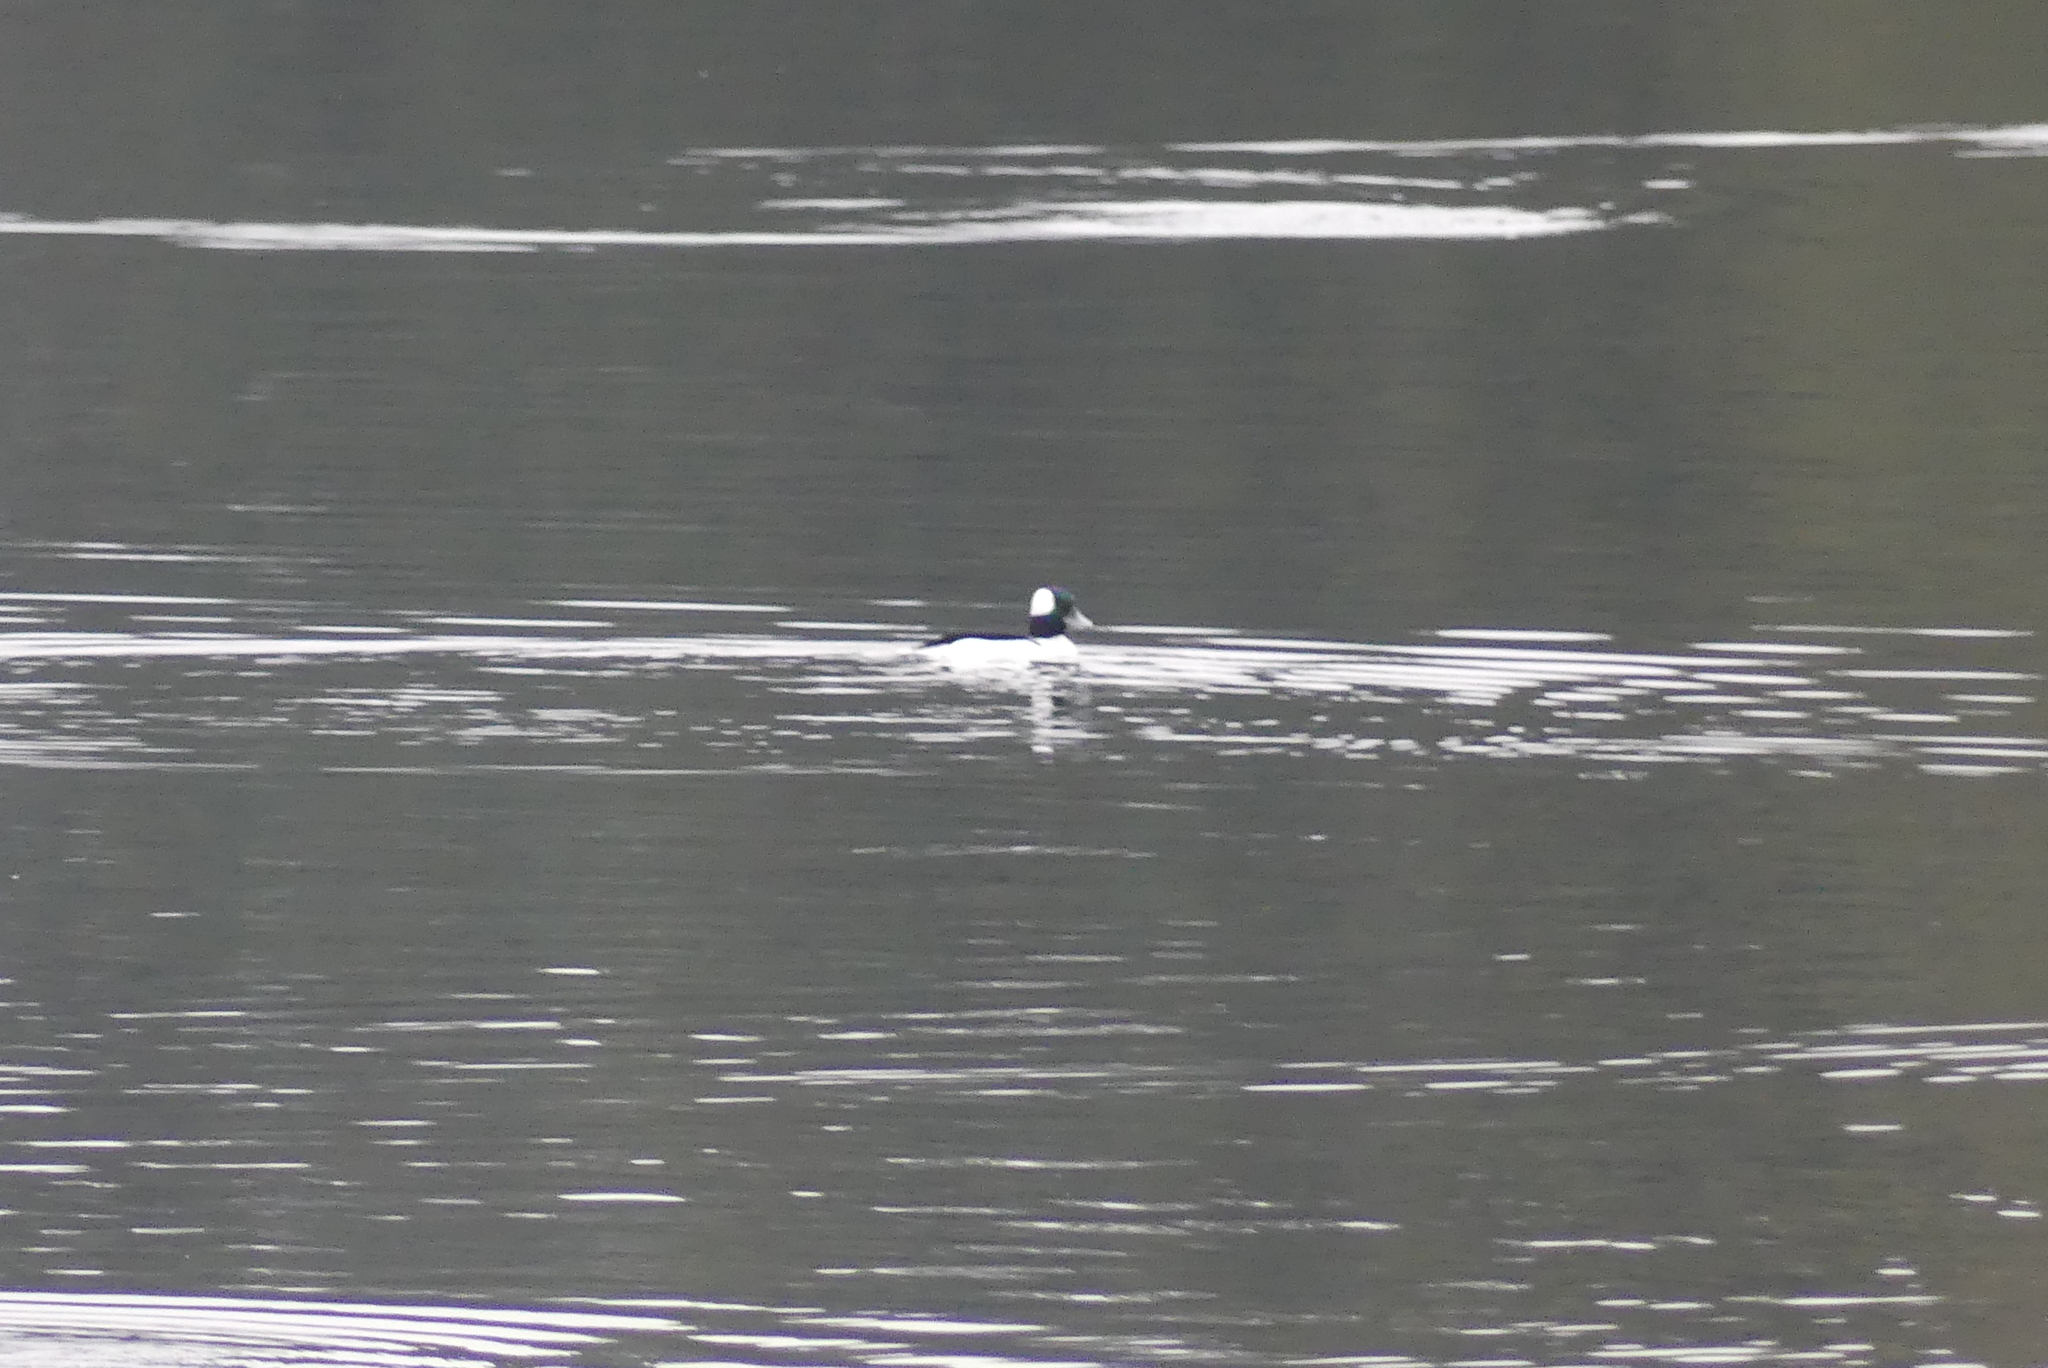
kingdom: Animalia
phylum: Chordata
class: Aves
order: Anseriformes
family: Anatidae
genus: Bucephala
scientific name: Bucephala albeola
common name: Bufflehead
